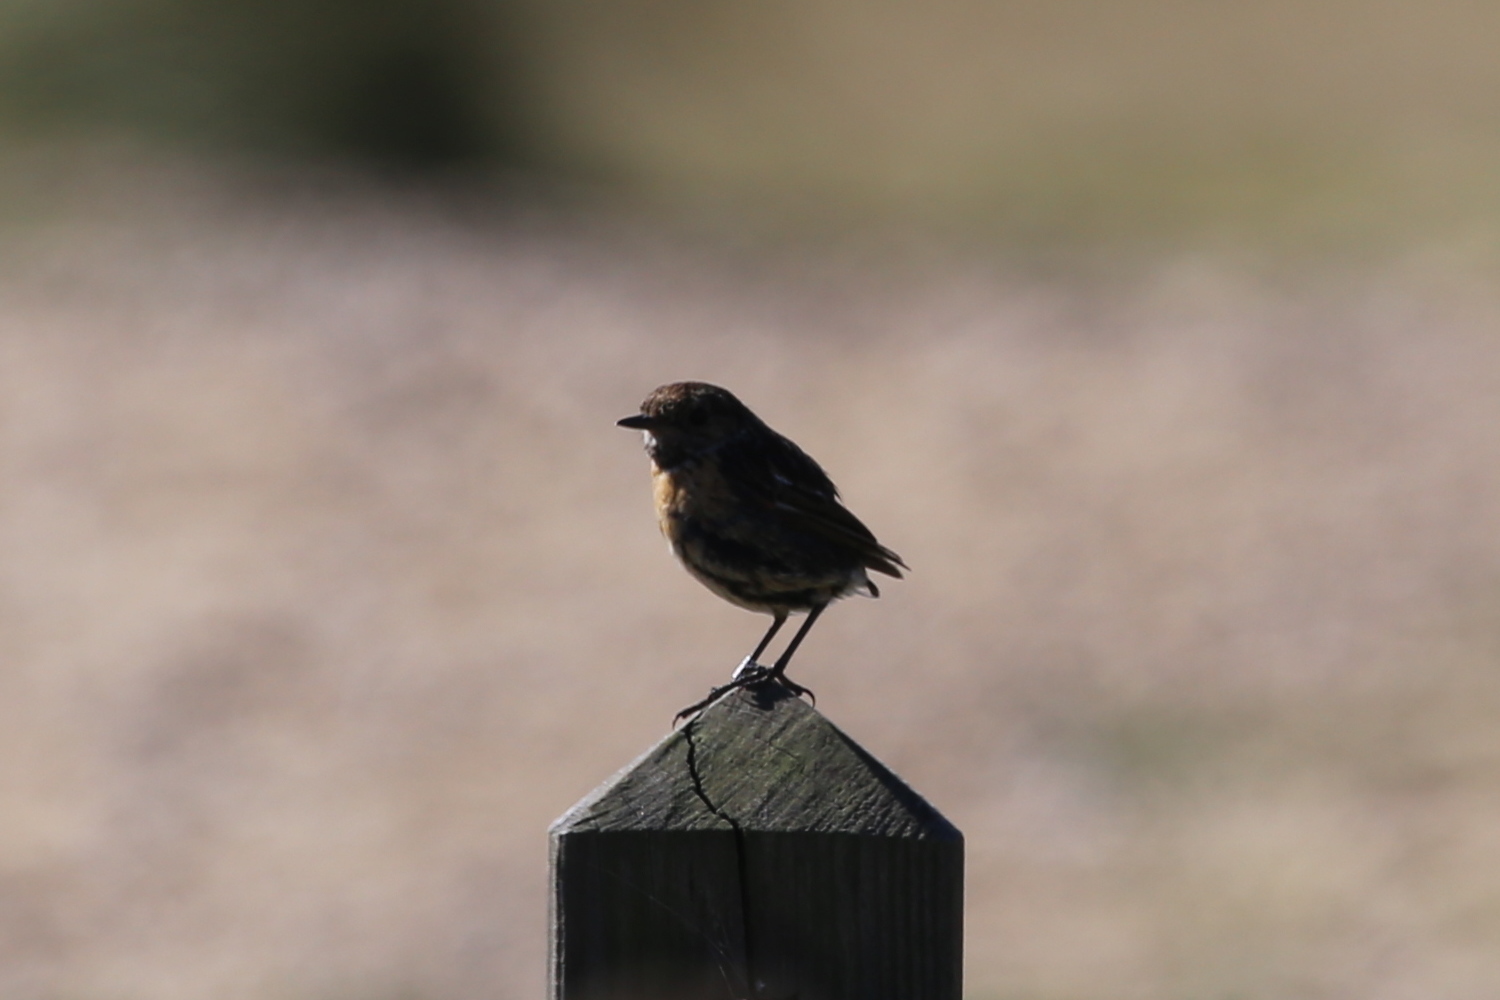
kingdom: Animalia
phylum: Chordata
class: Aves
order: Passeriformes
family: Muscicapidae
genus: Saxicola
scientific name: Saxicola rubicola
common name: European stonechat
